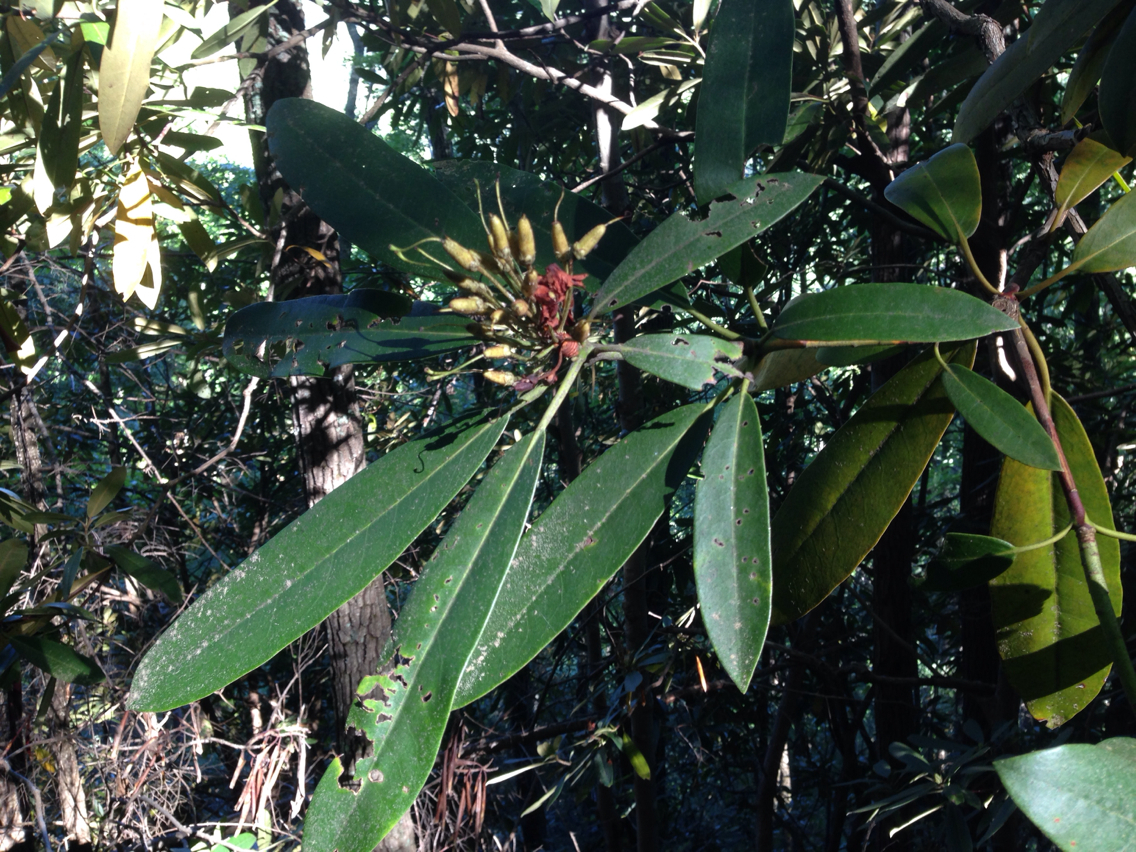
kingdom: Plantae
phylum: Tracheophyta
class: Magnoliopsida
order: Ericales
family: Ericaceae
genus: Rhododendron
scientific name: Rhododendron maximum
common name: Great rhododendron
